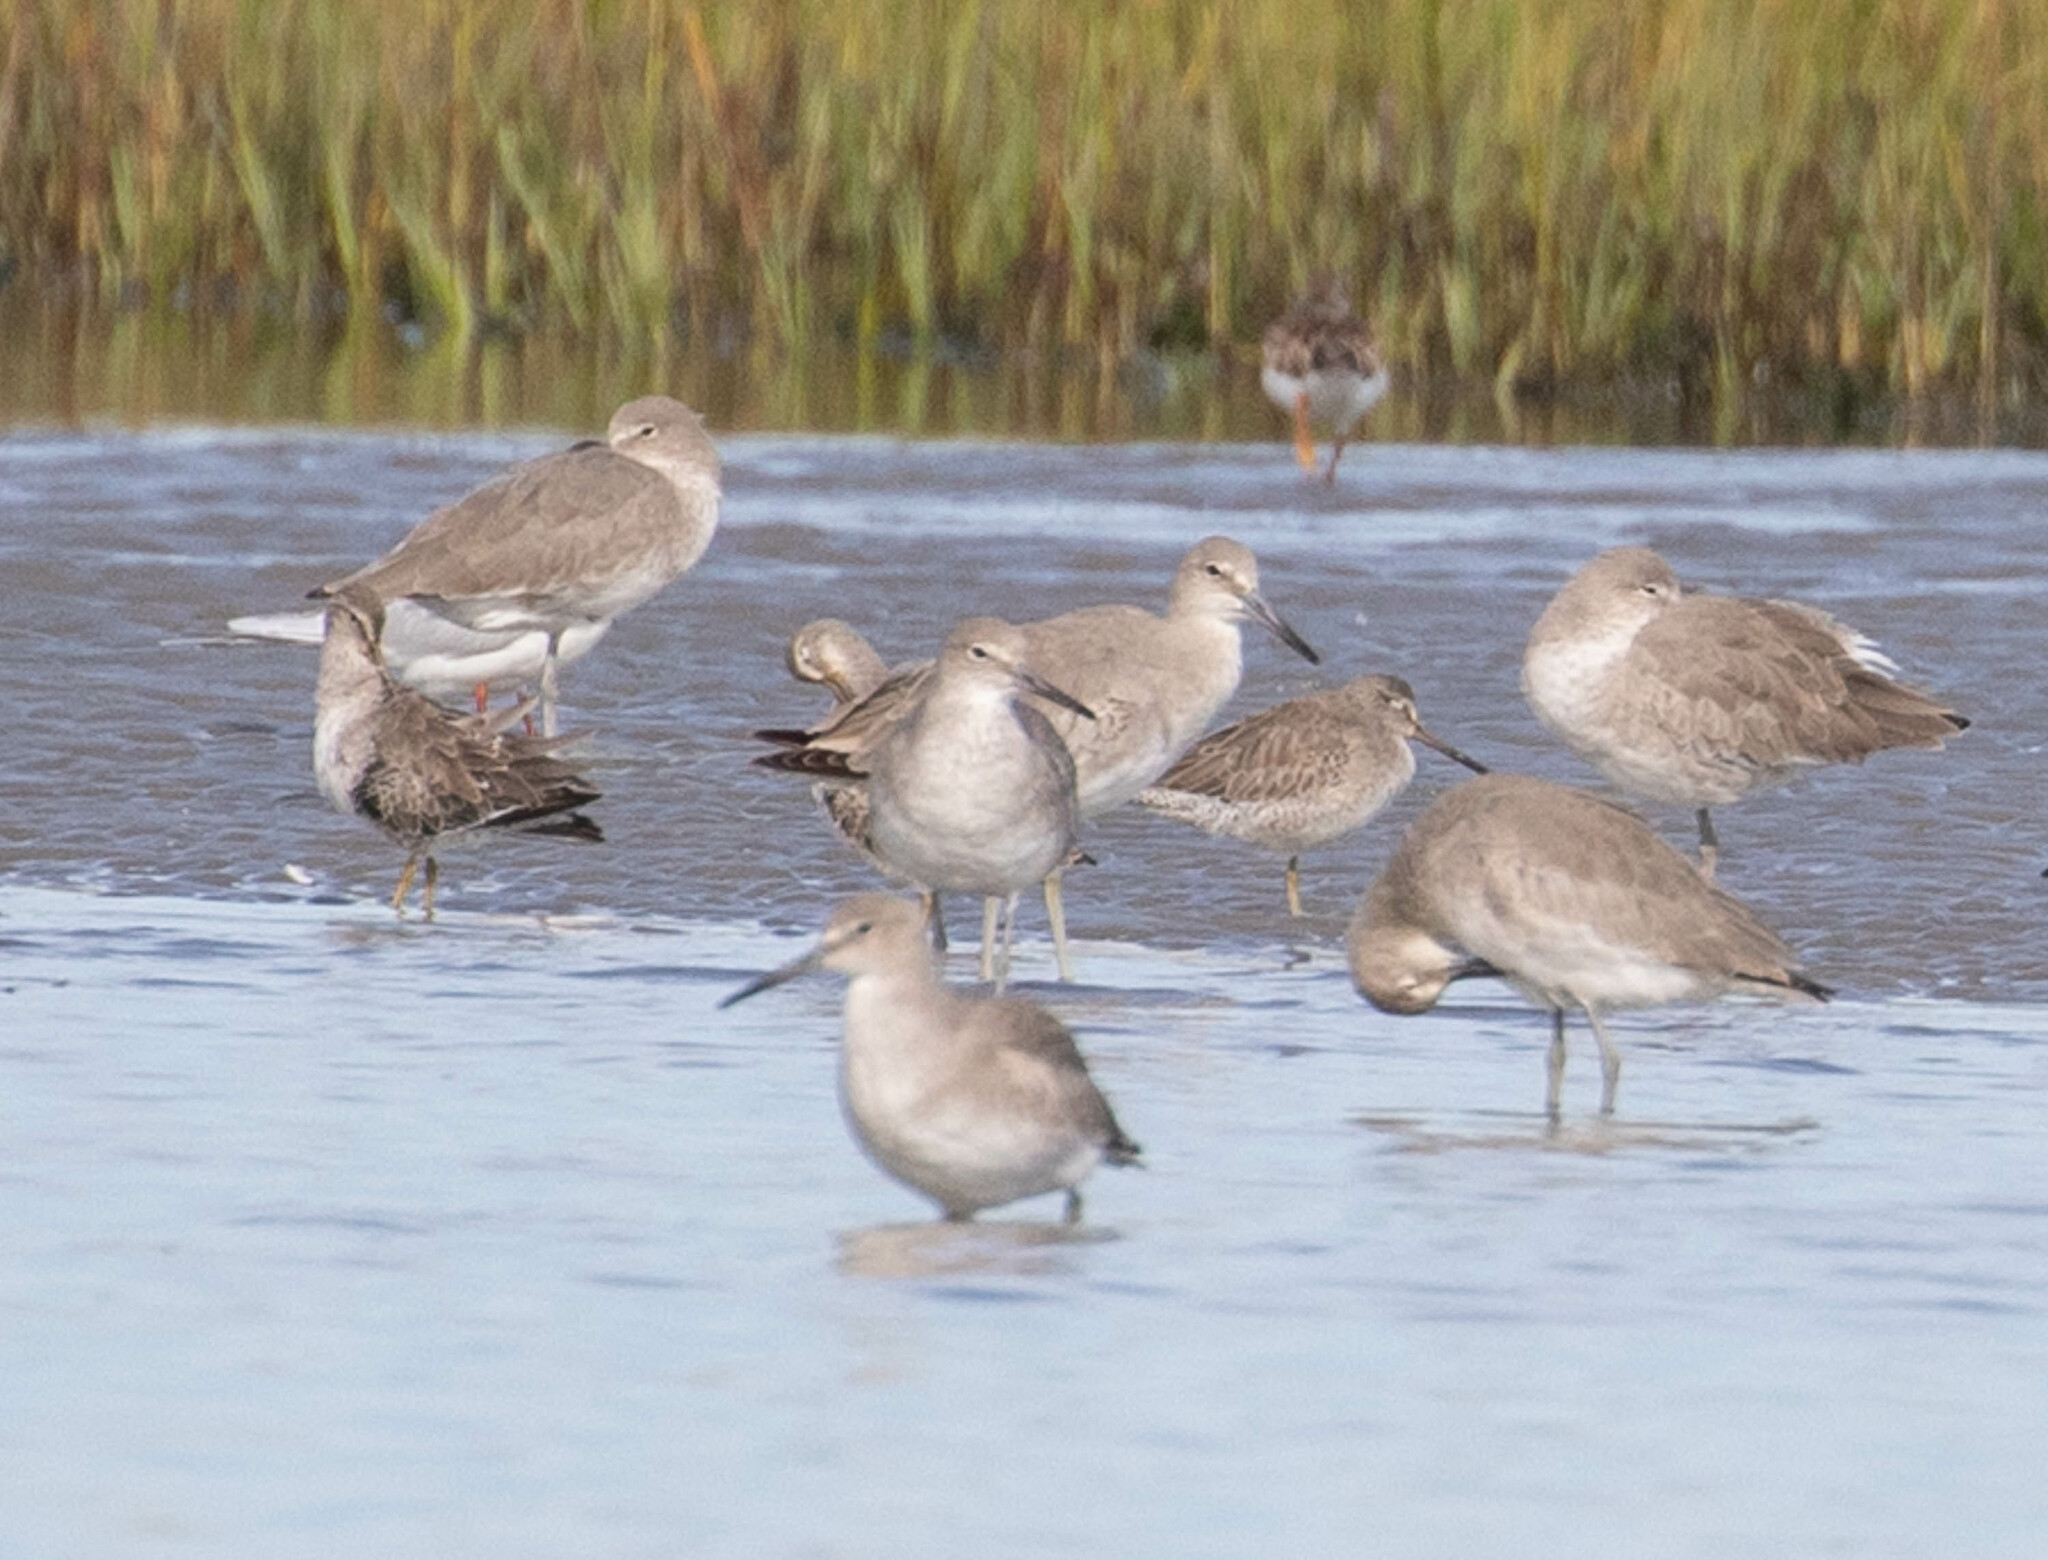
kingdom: Animalia
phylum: Chordata
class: Aves
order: Charadriiformes
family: Scolopacidae
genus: Tringa
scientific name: Tringa semipalmata
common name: Willet
